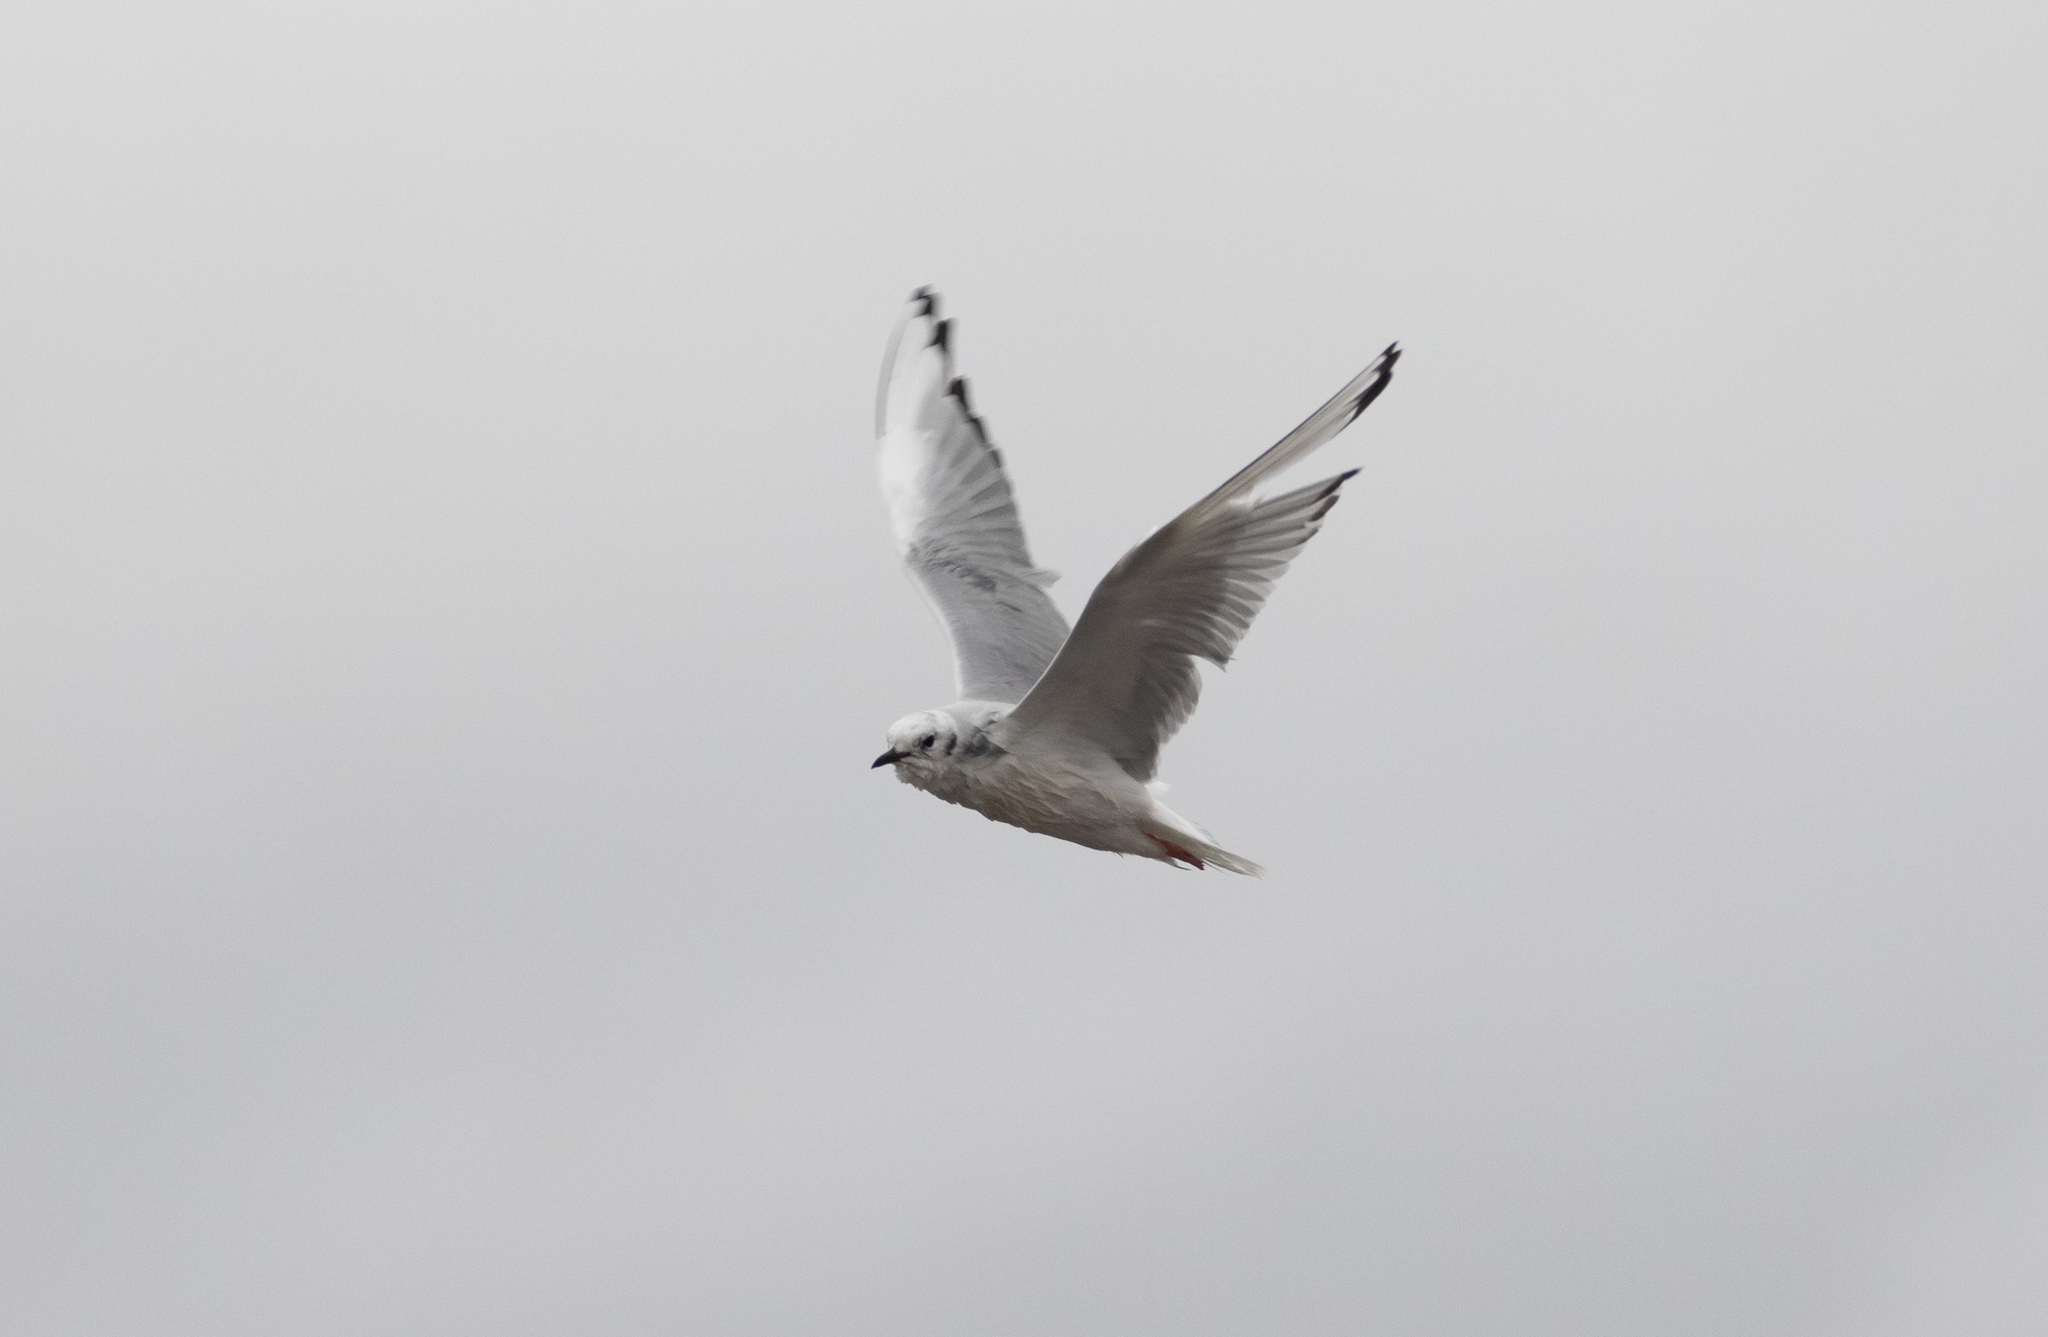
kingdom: Animalia
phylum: Chordata
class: Aves
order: Charadriiformes
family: Laridae
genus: Chroicocephalus
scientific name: Chroicocephalus philadelphia
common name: Bonaparte's gull
